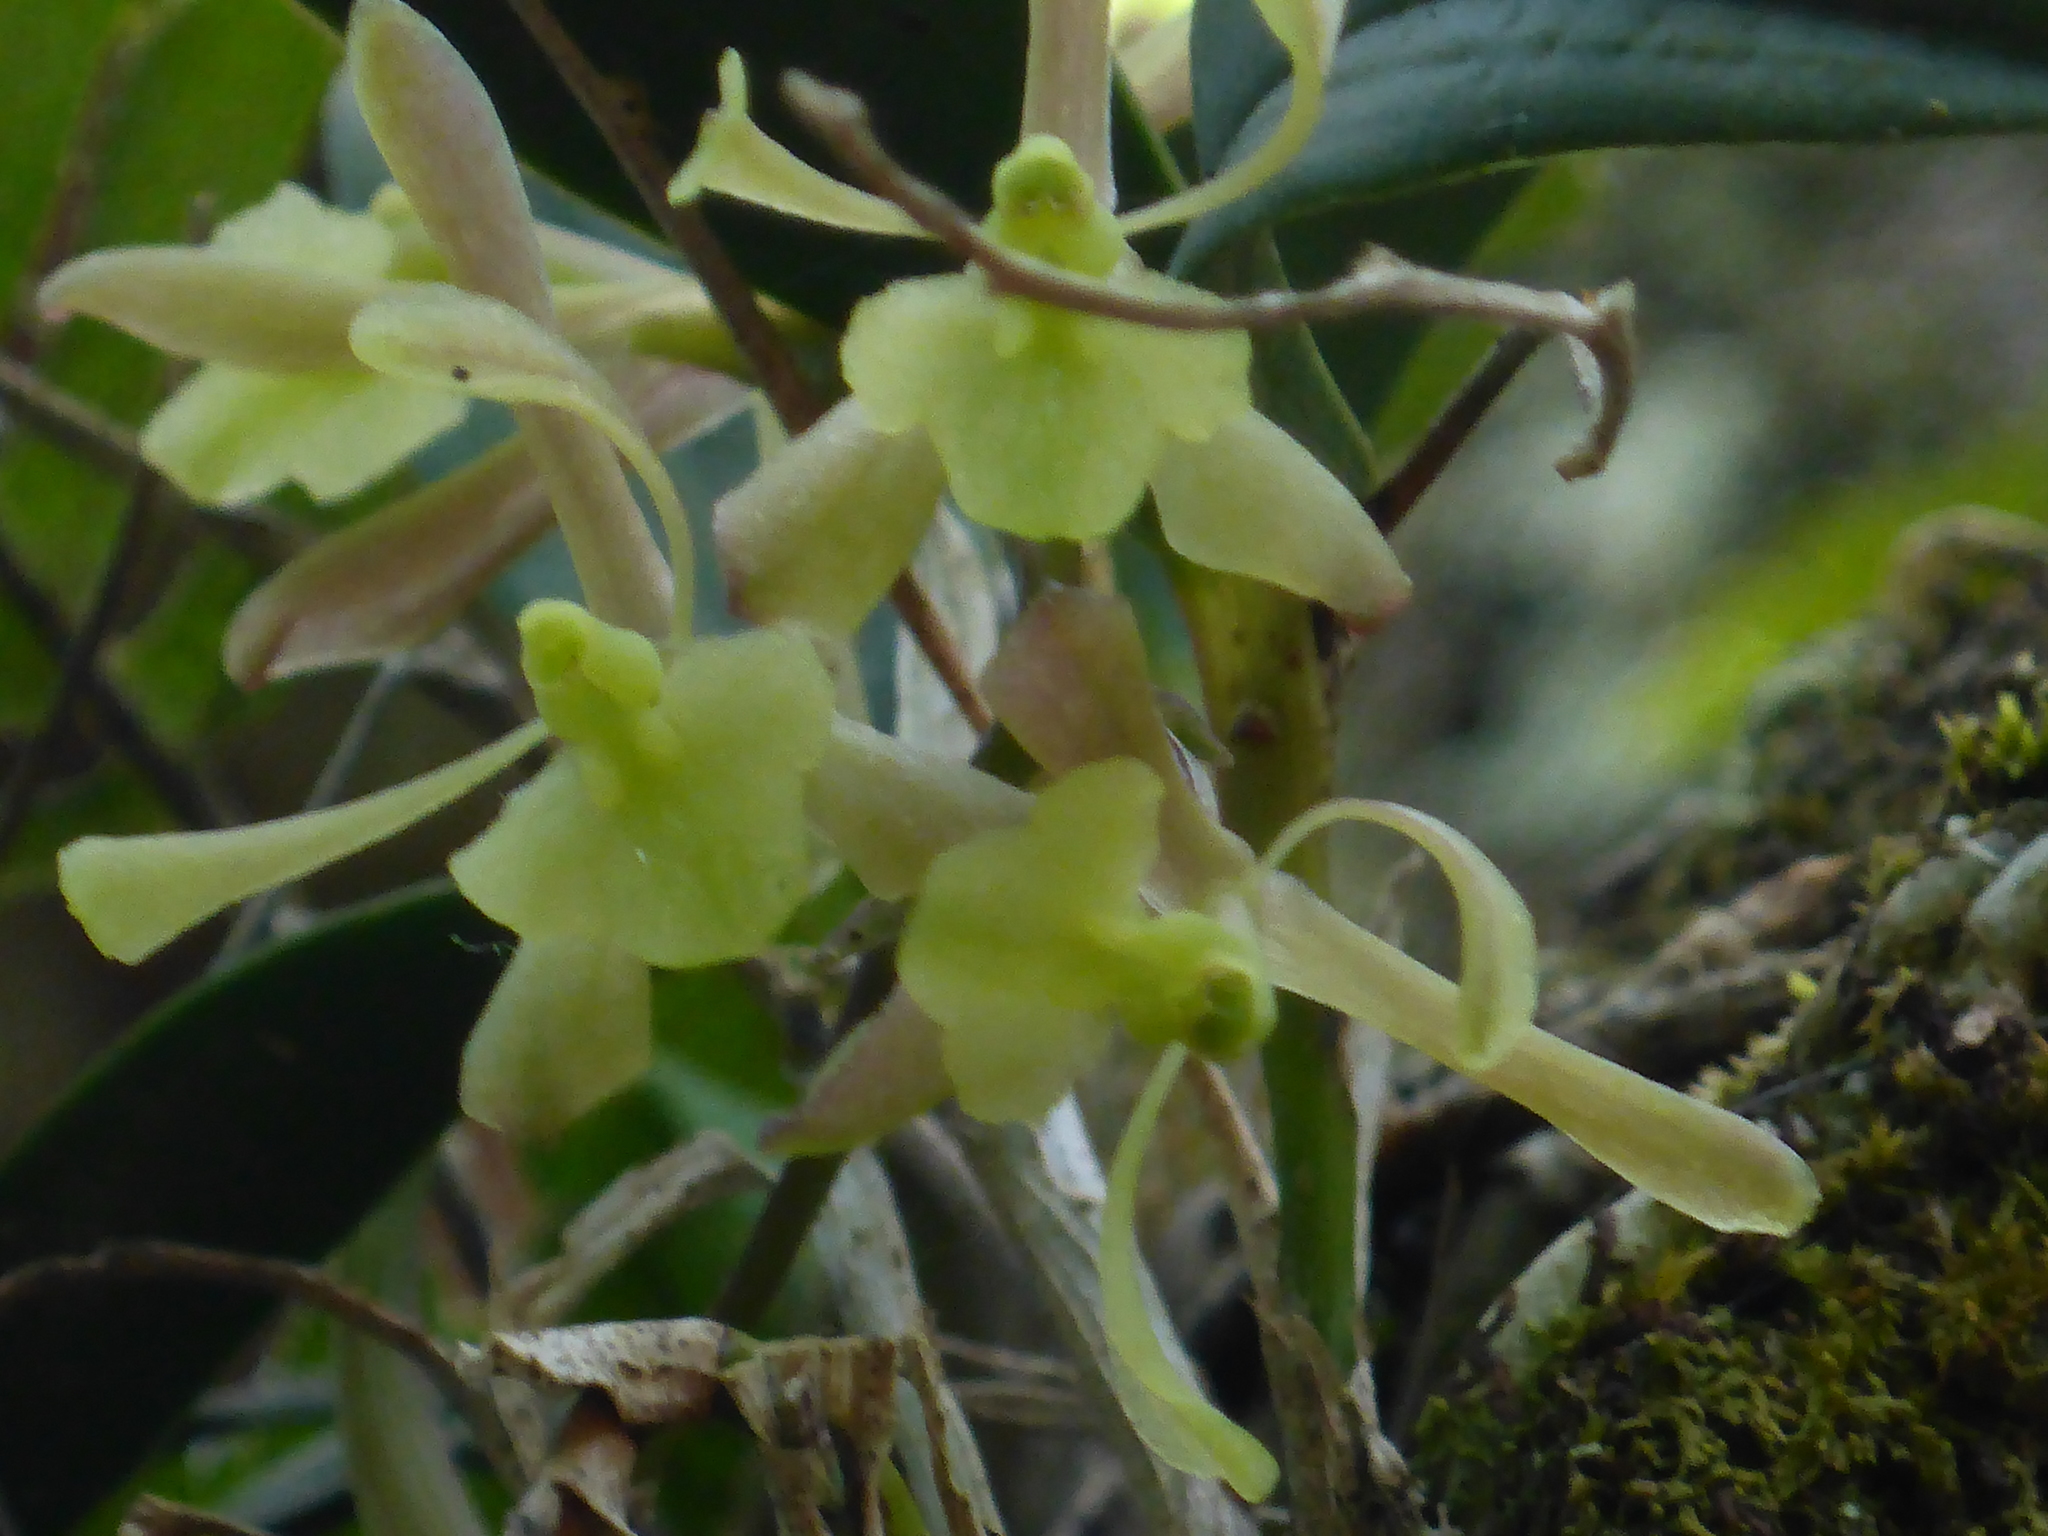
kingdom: Plantae
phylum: Tracheophyta
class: Liliopsida
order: Asparagales
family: Orchidaceae
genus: Epidendrum
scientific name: Epidendrum conopseum
